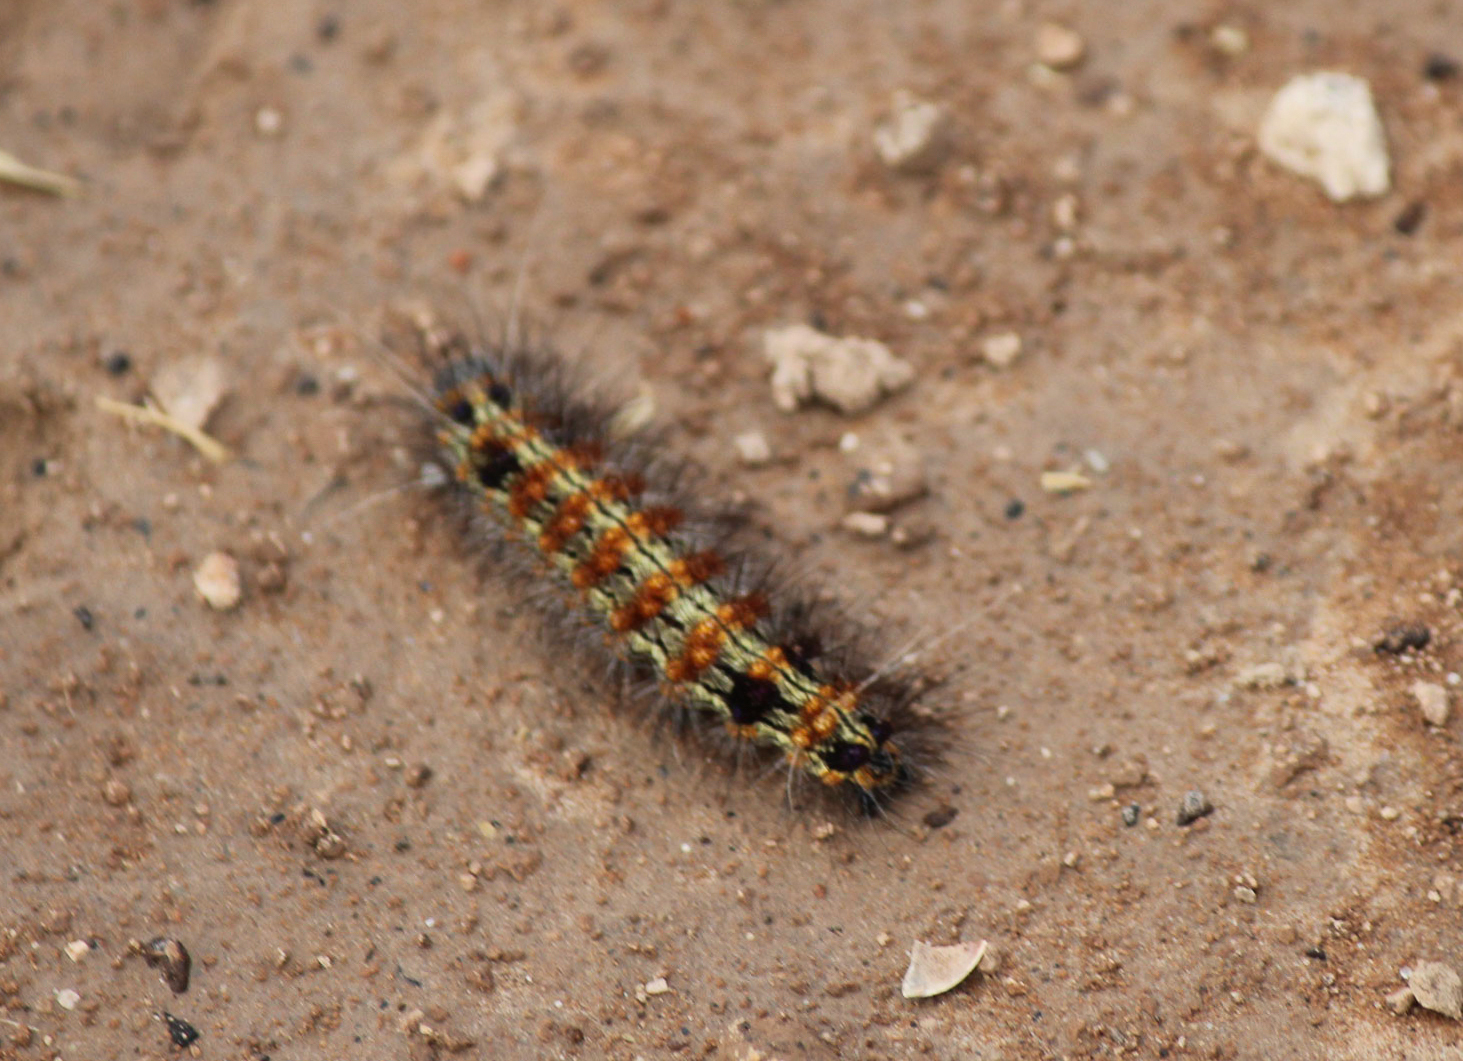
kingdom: Animalia
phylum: Arthropoda
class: Insecta
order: Lepidoptera
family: Erebidae
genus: Dysschema
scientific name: Dysschema sacrifica
